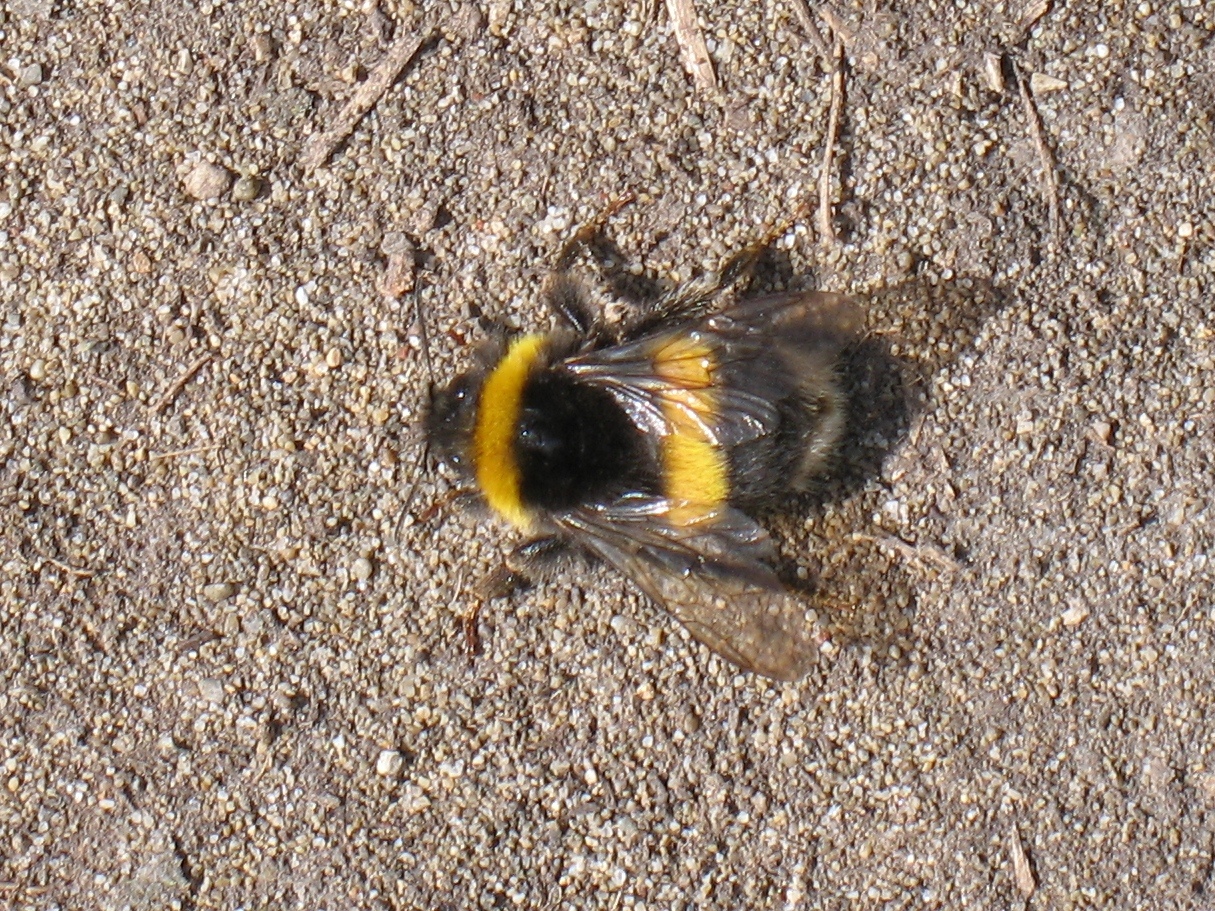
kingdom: Animalia
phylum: Arthropoda
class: Insecta
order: Hymenoptera
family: Apidae
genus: Bombus
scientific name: Bombus terrestris
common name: Buff-tailed bumblebee
